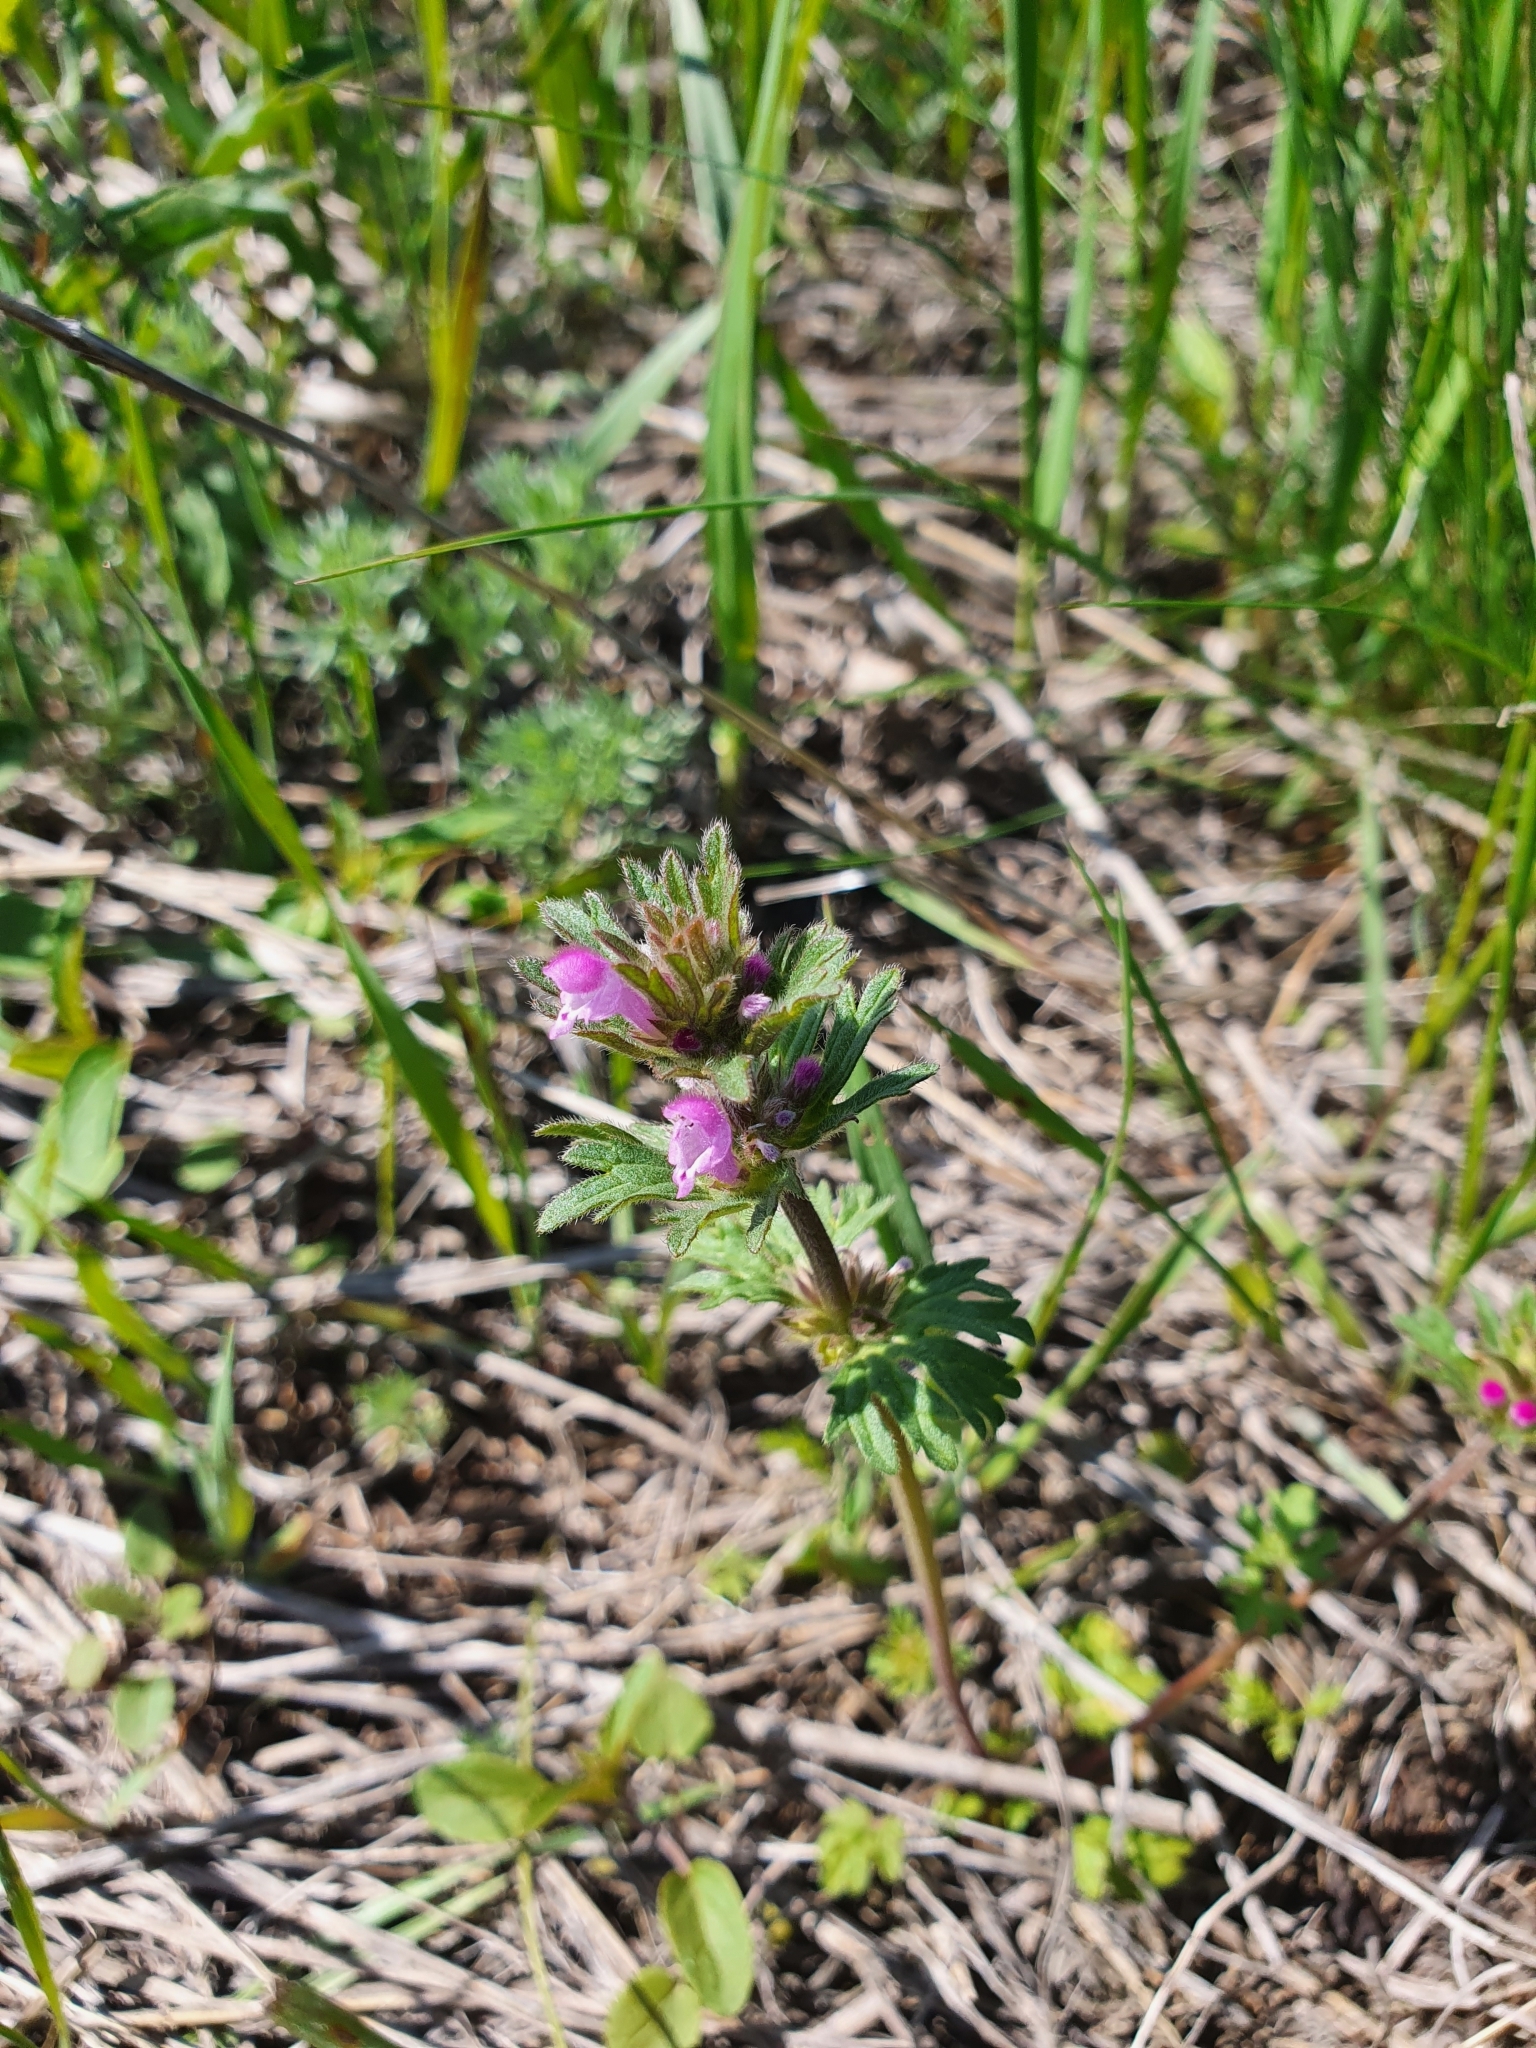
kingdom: Plantae
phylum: Tracheophyta
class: Magnoliopsida
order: Lamiales
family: Lamiaceae
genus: Lamium
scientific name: Lamium amplexicaule
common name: Henbit dead-nettle
